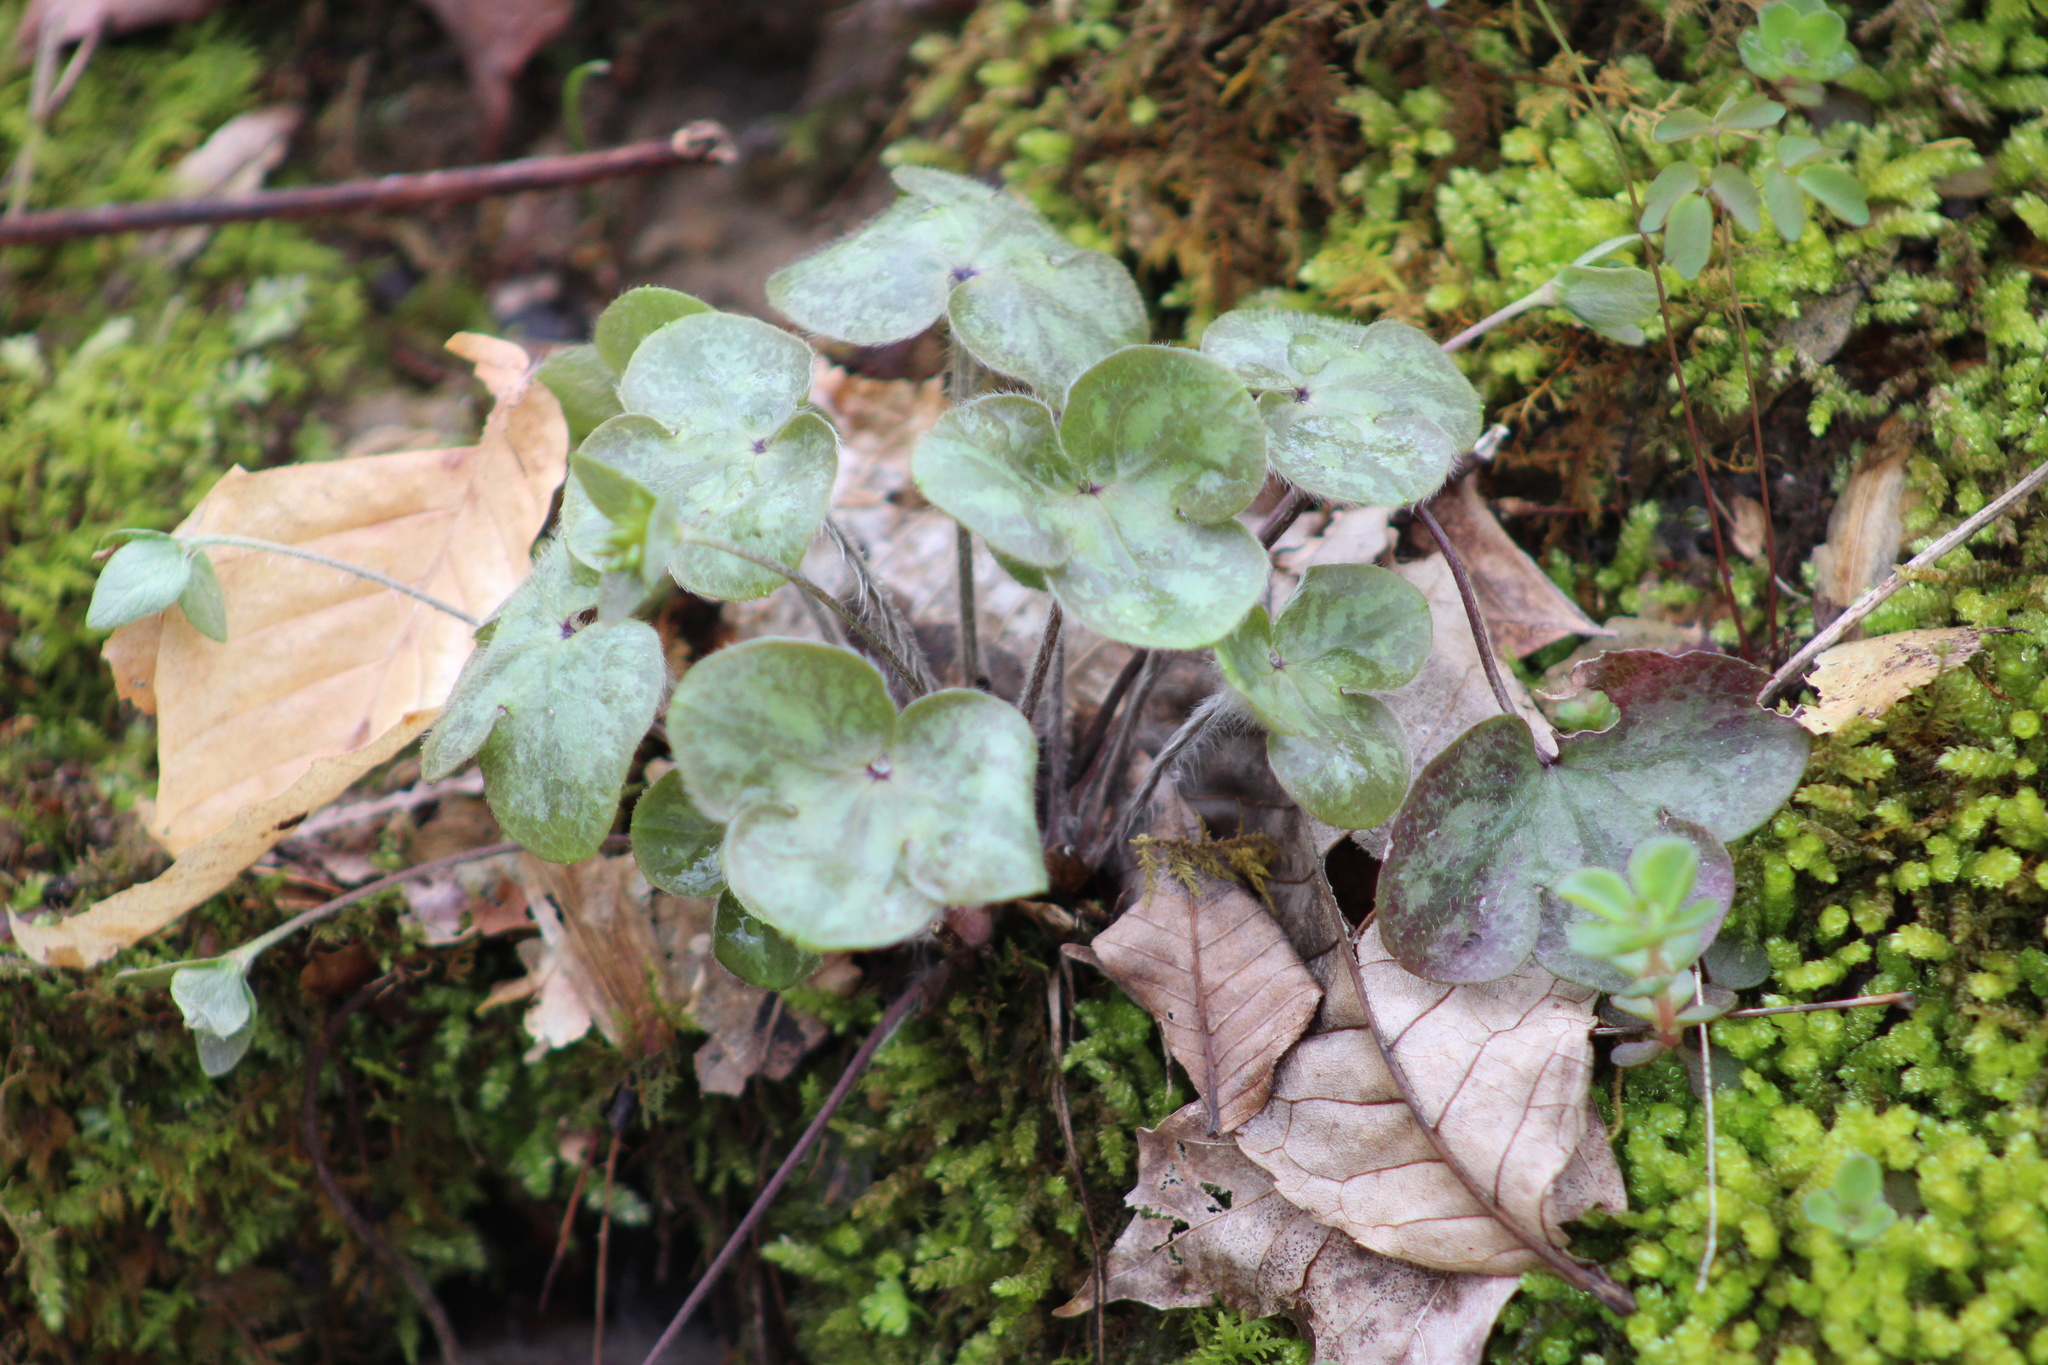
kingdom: Plantae
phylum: Tracheophyta
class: Magnoliopsida
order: Ranunculales
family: Ranunculaceae
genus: Hepatica
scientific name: Hepatica americana
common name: American hepatica
